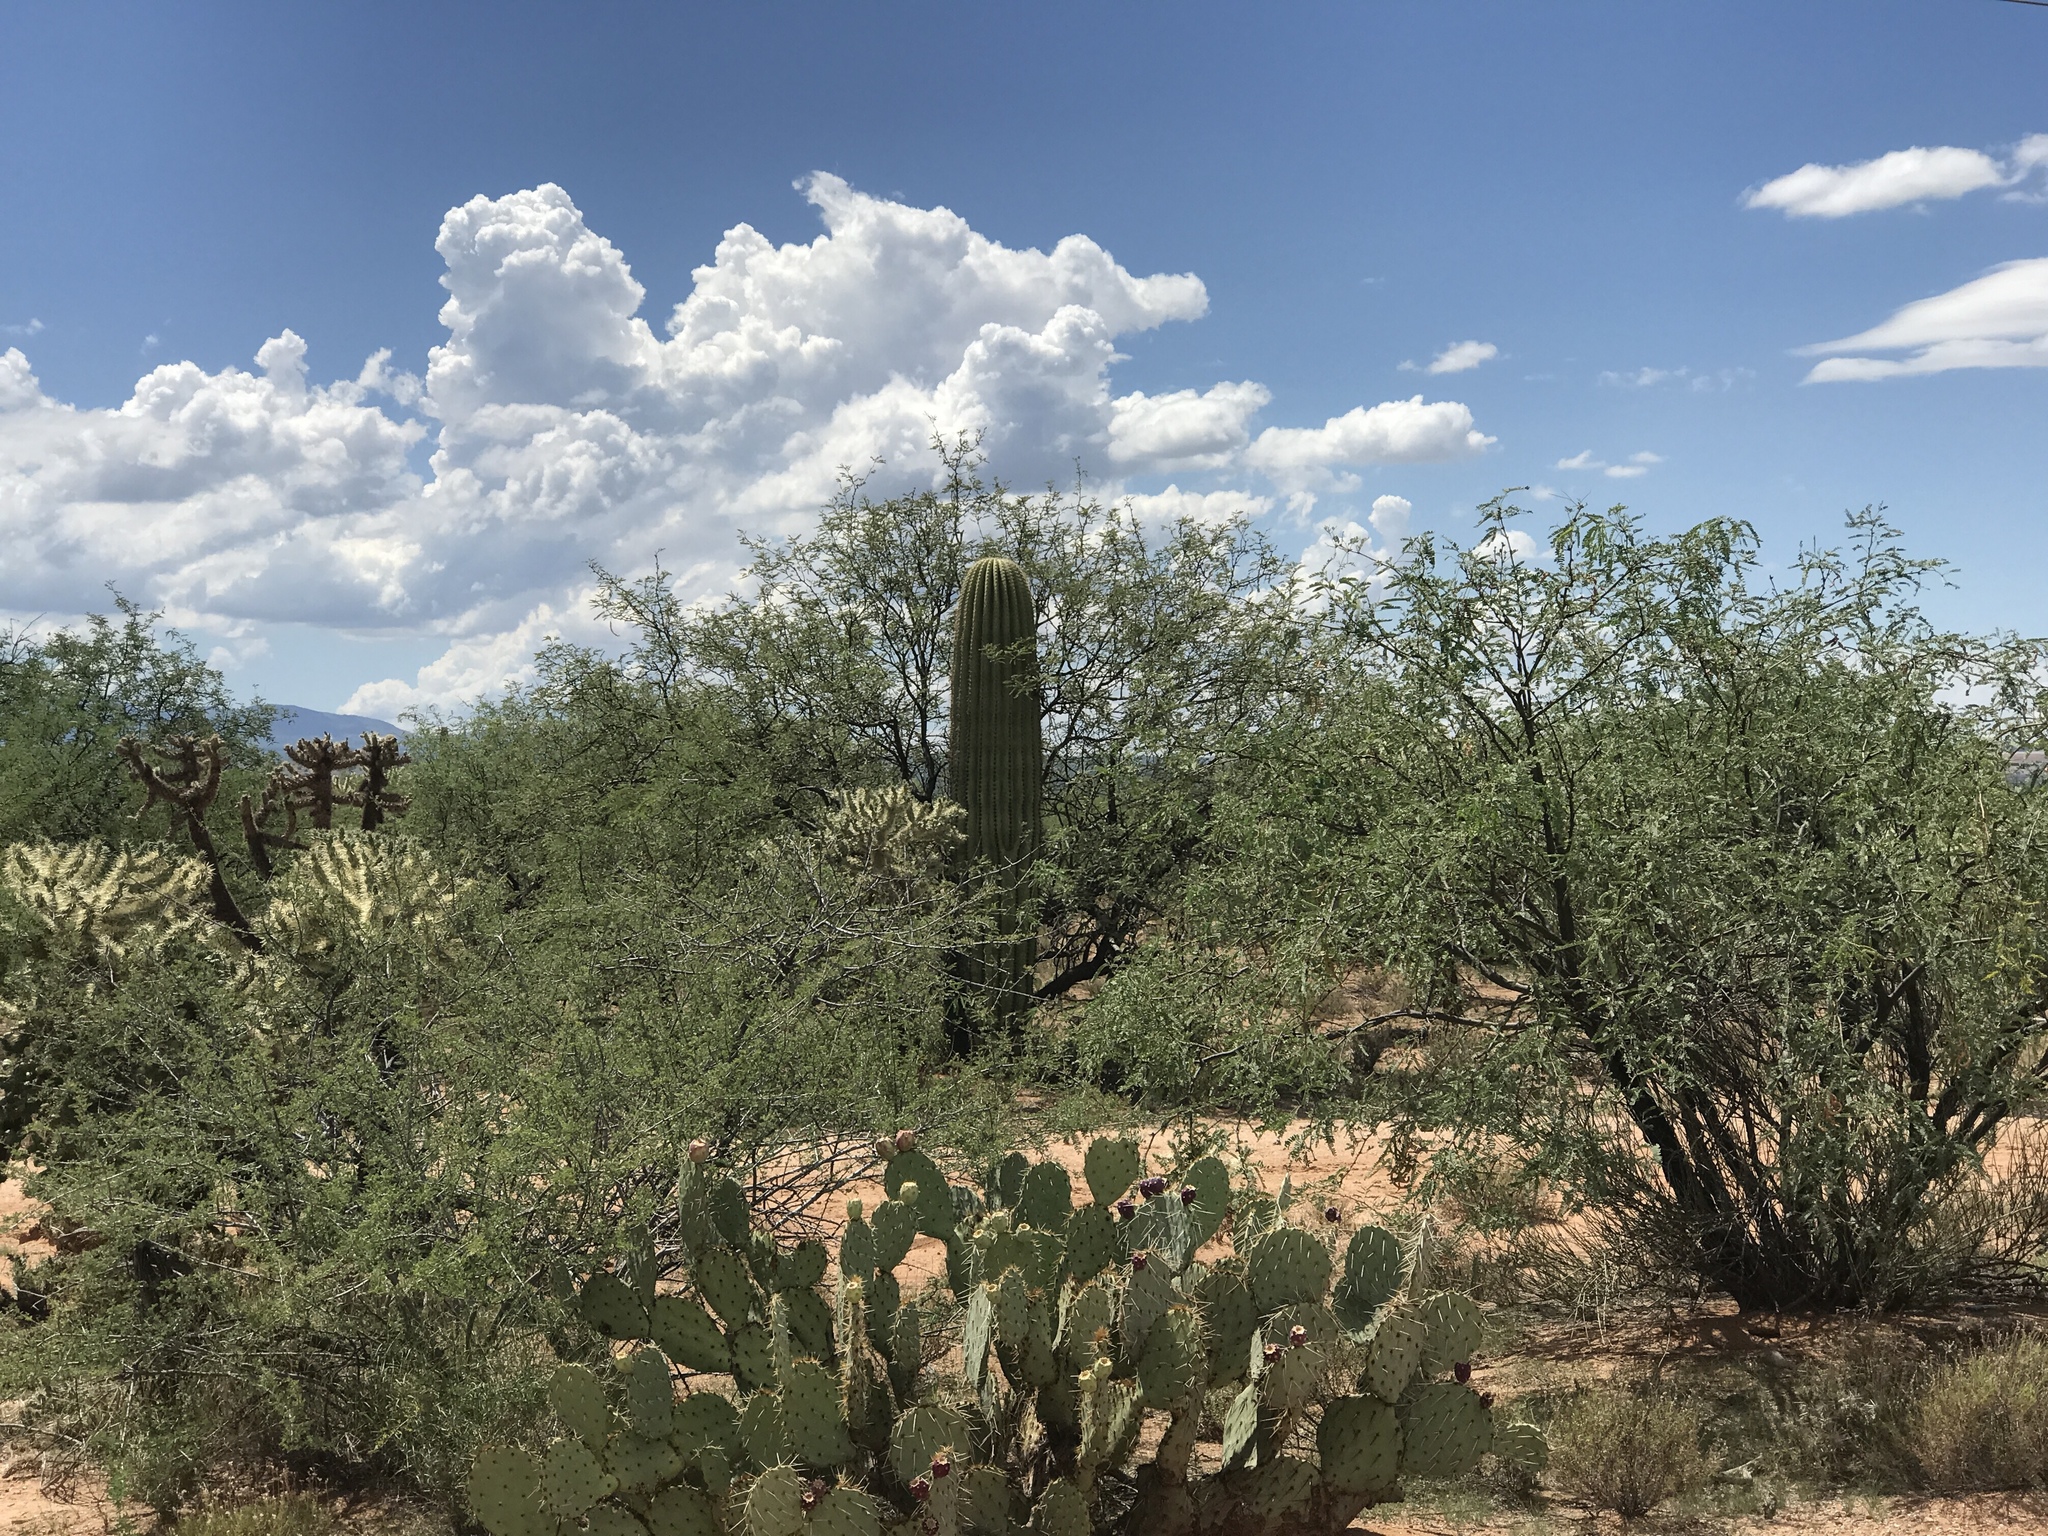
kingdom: Plantae
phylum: Tracheophyta
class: Magnoliopsida
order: Caryophyllales
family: Cactaceae
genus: Carnegiea
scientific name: Carnegiea gigantea
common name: Saguaro
